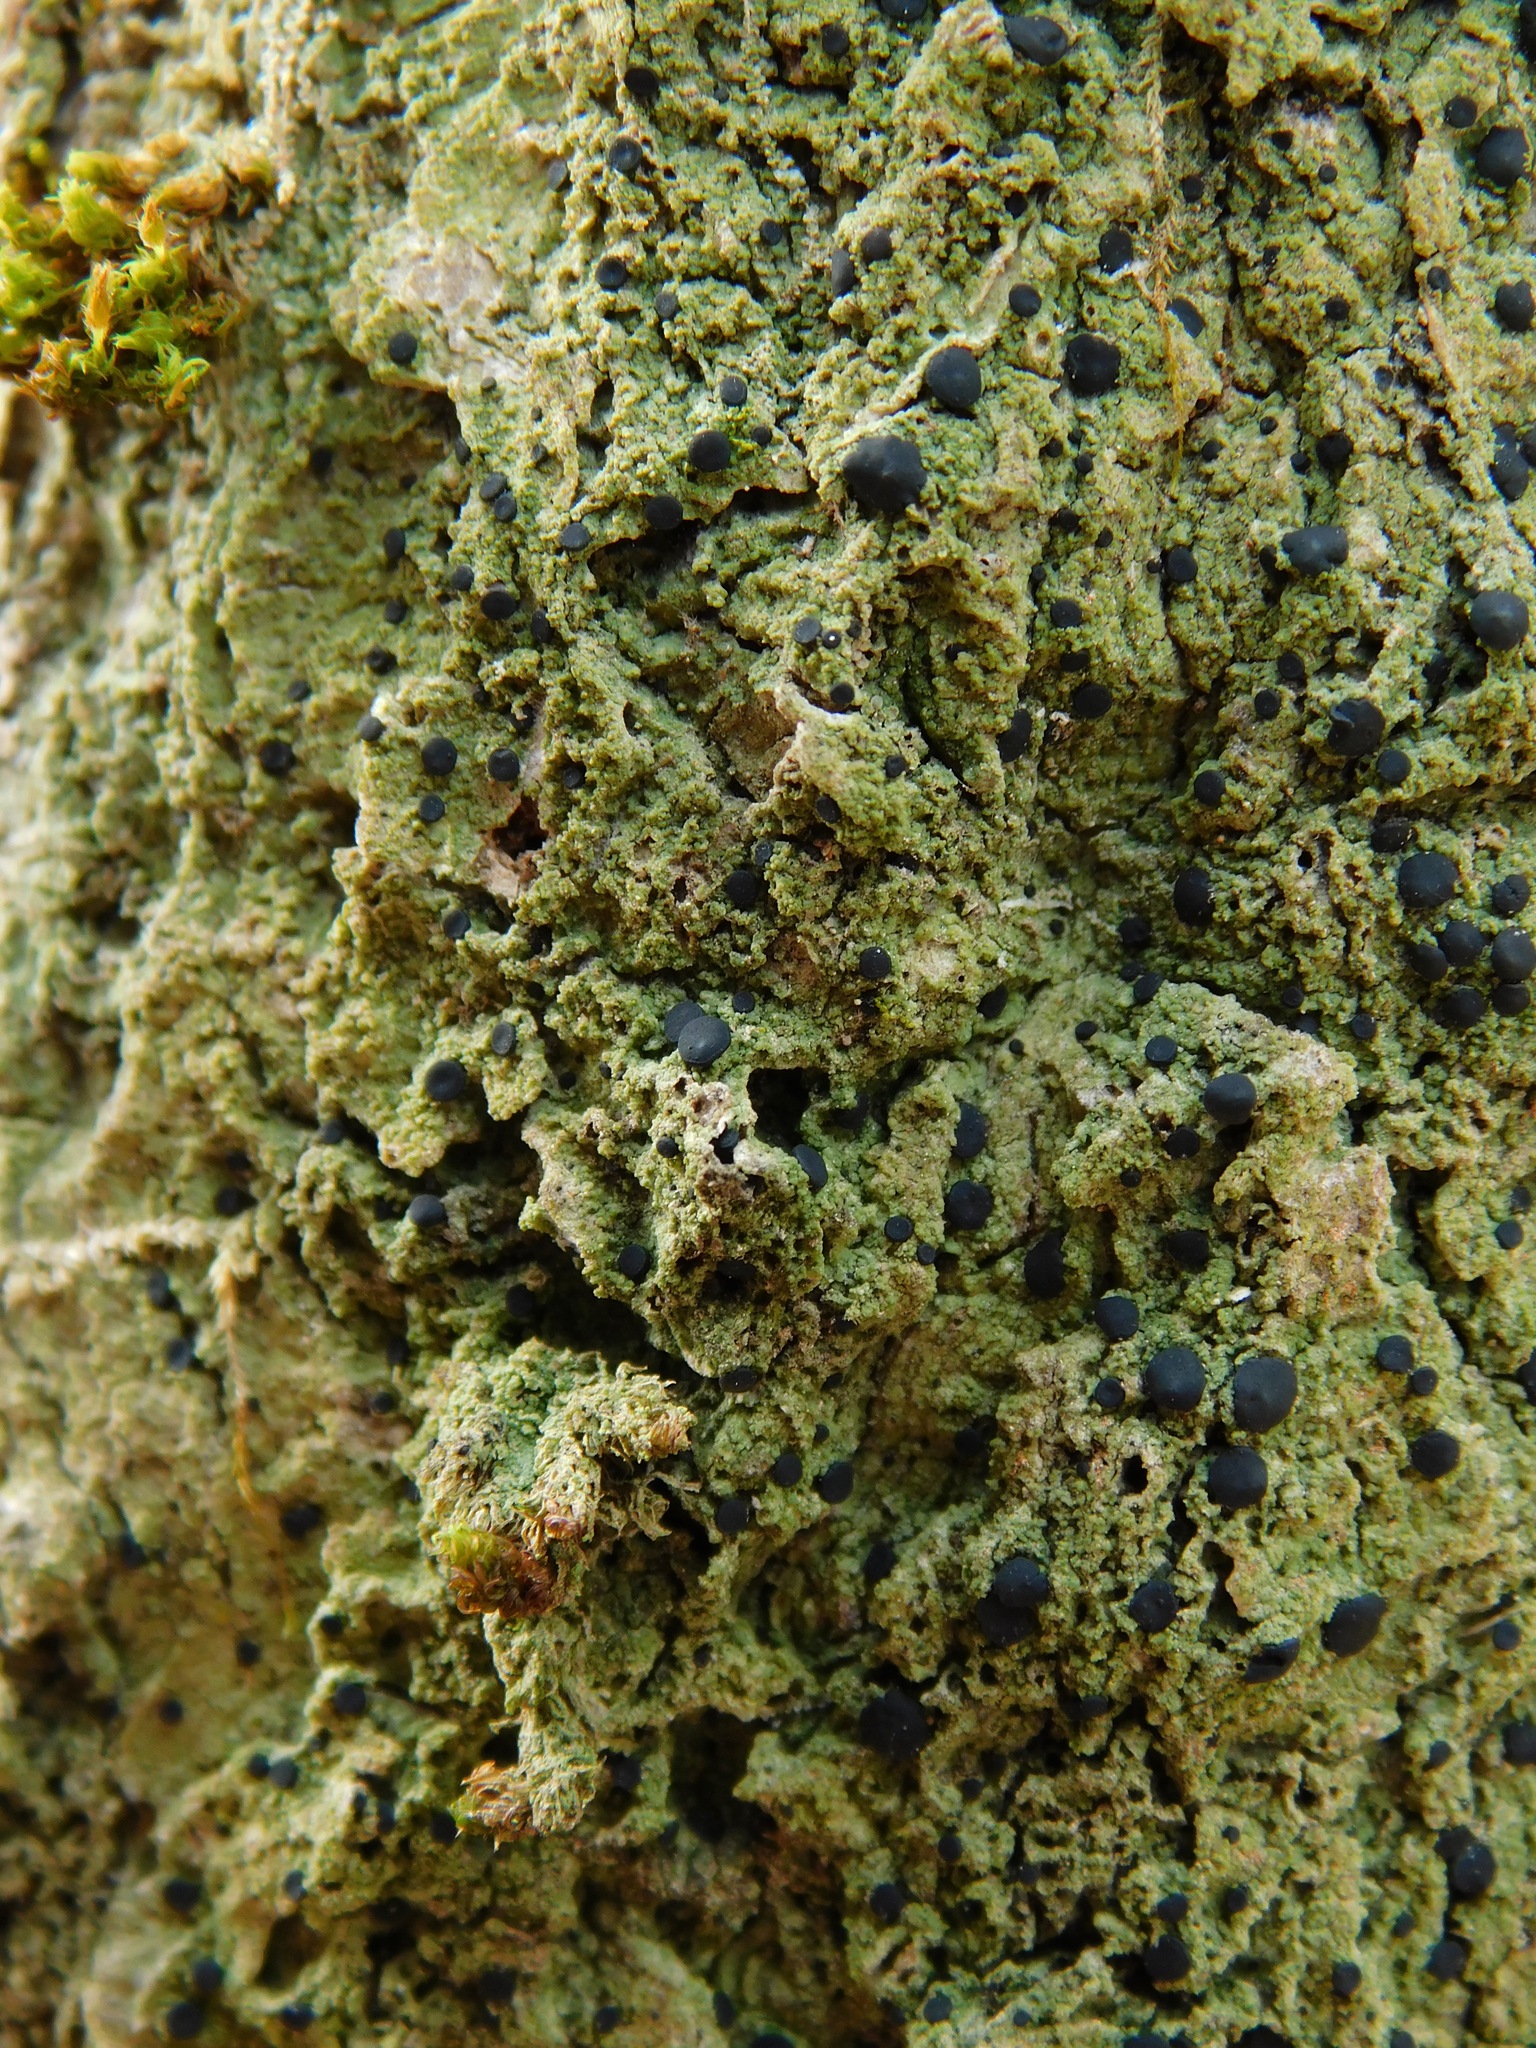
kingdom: Fungi
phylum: Ascomycota
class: Lecanoromycetes
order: Lecanorales
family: Ramalinaceae
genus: Bacidia
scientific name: Bacidia schweinitzii
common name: Surprise lichen
